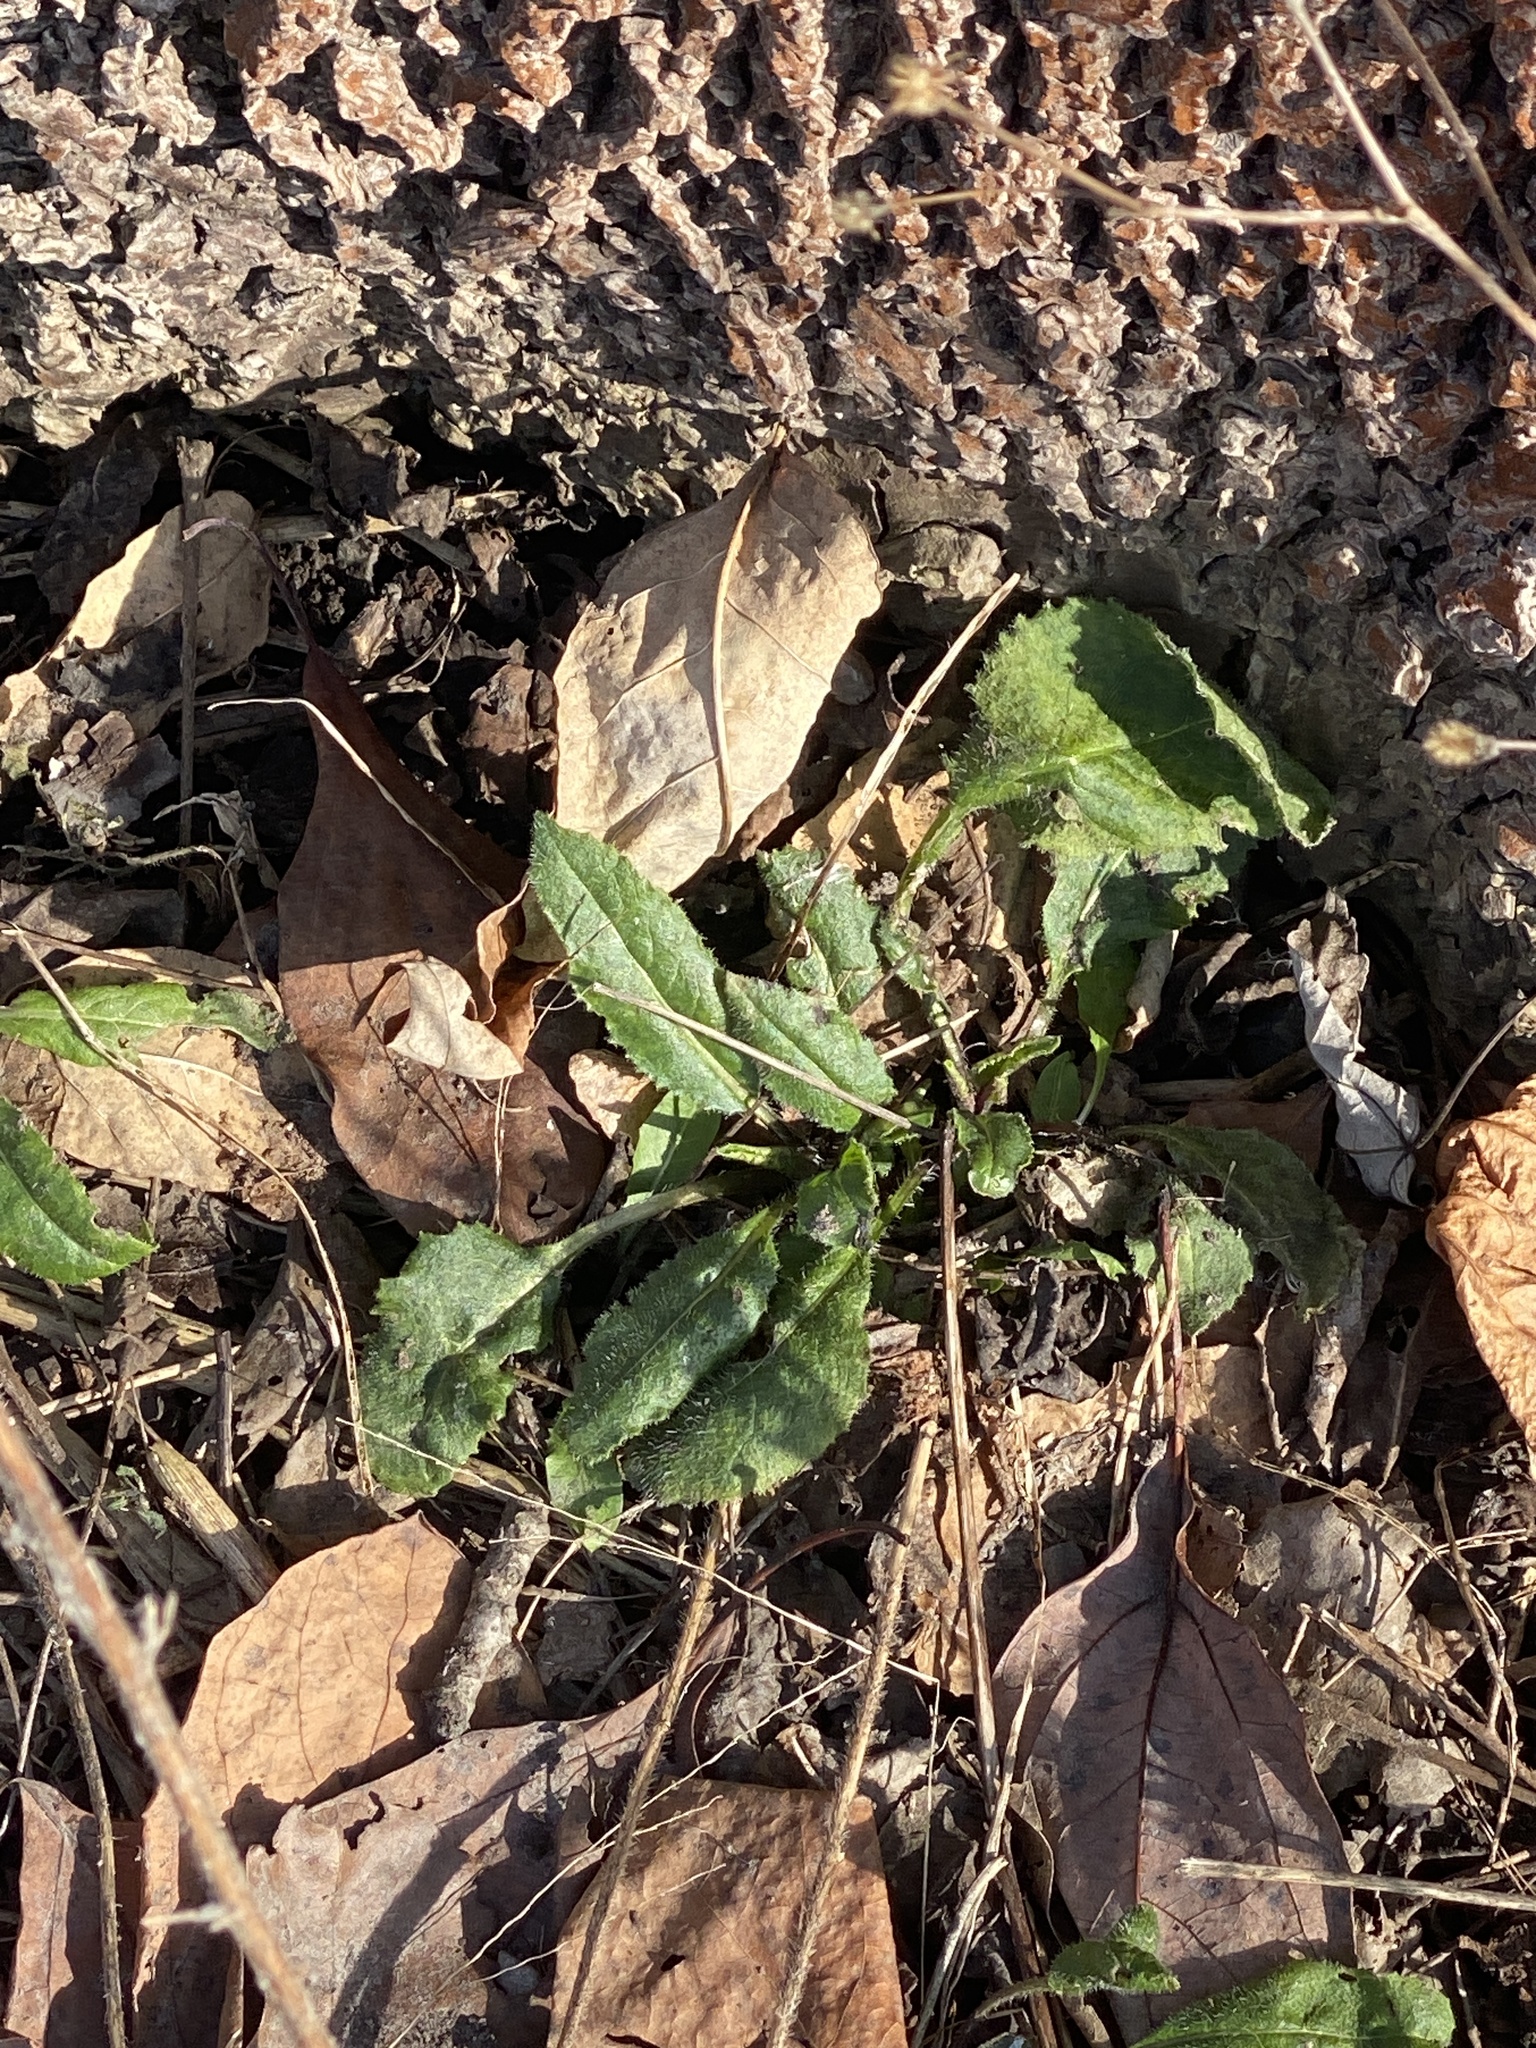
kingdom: Plantae
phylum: Tracheophyta
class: Magnoliopsida
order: Brassicales
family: Brassicaceae
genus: Hesperis
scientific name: Hesperis matronalis
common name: Dame's-violet
